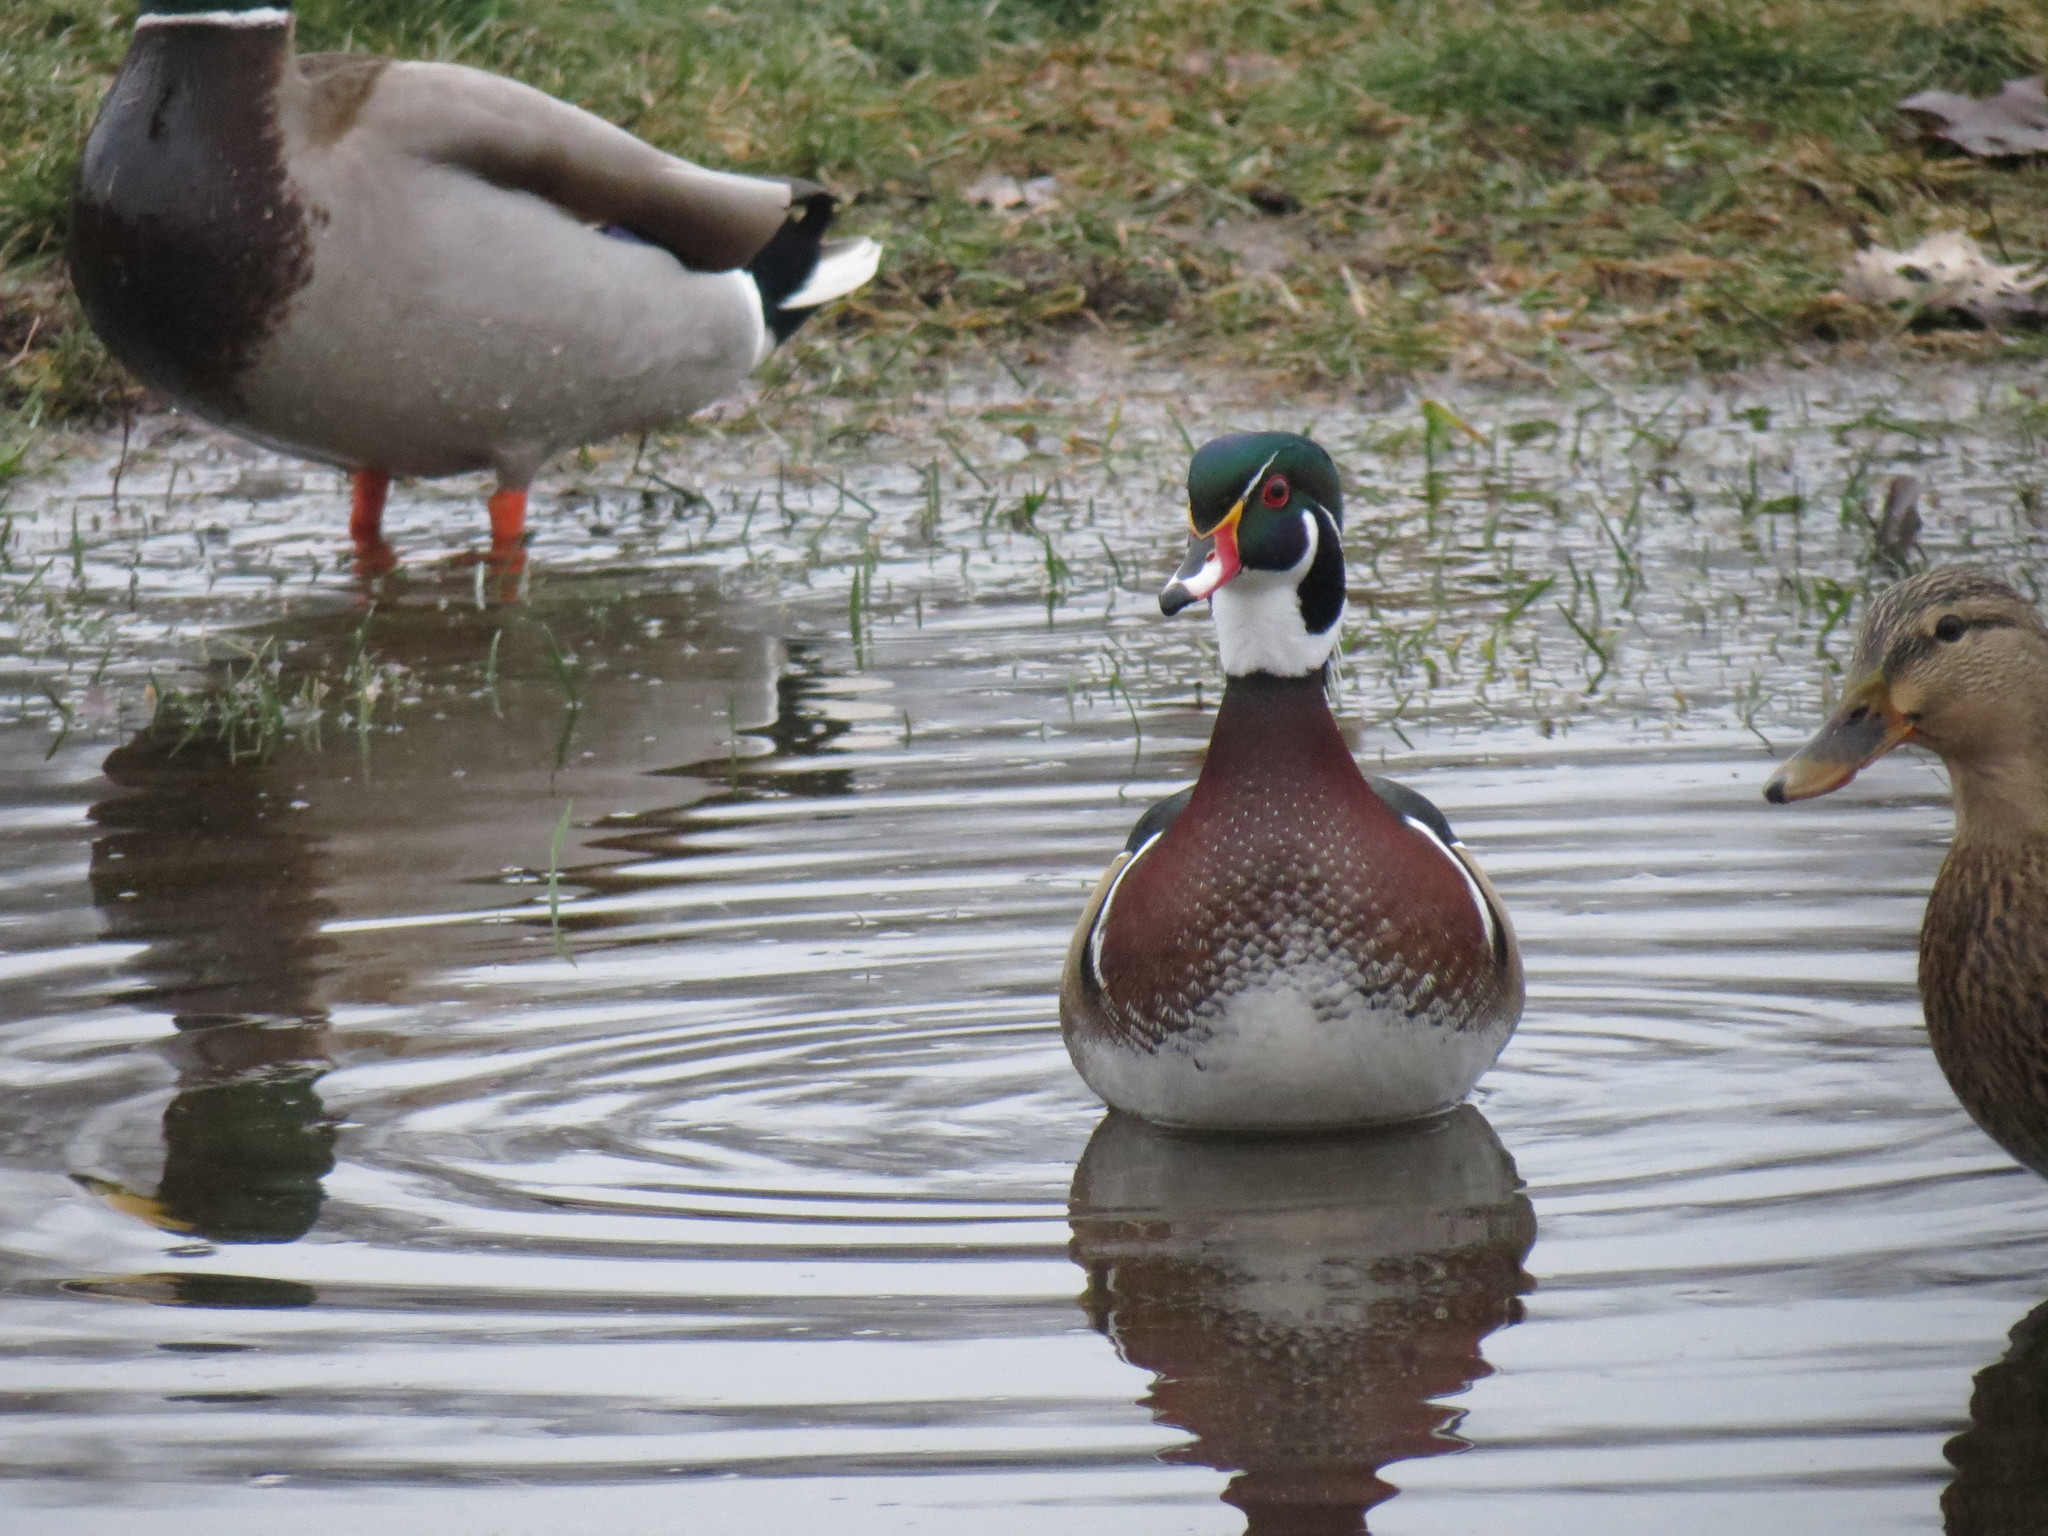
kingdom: Animalia
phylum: Chordata
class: Aves
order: Anseriformes
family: Anatidae
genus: Aix
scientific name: Aix sponsa
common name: Wood duck
